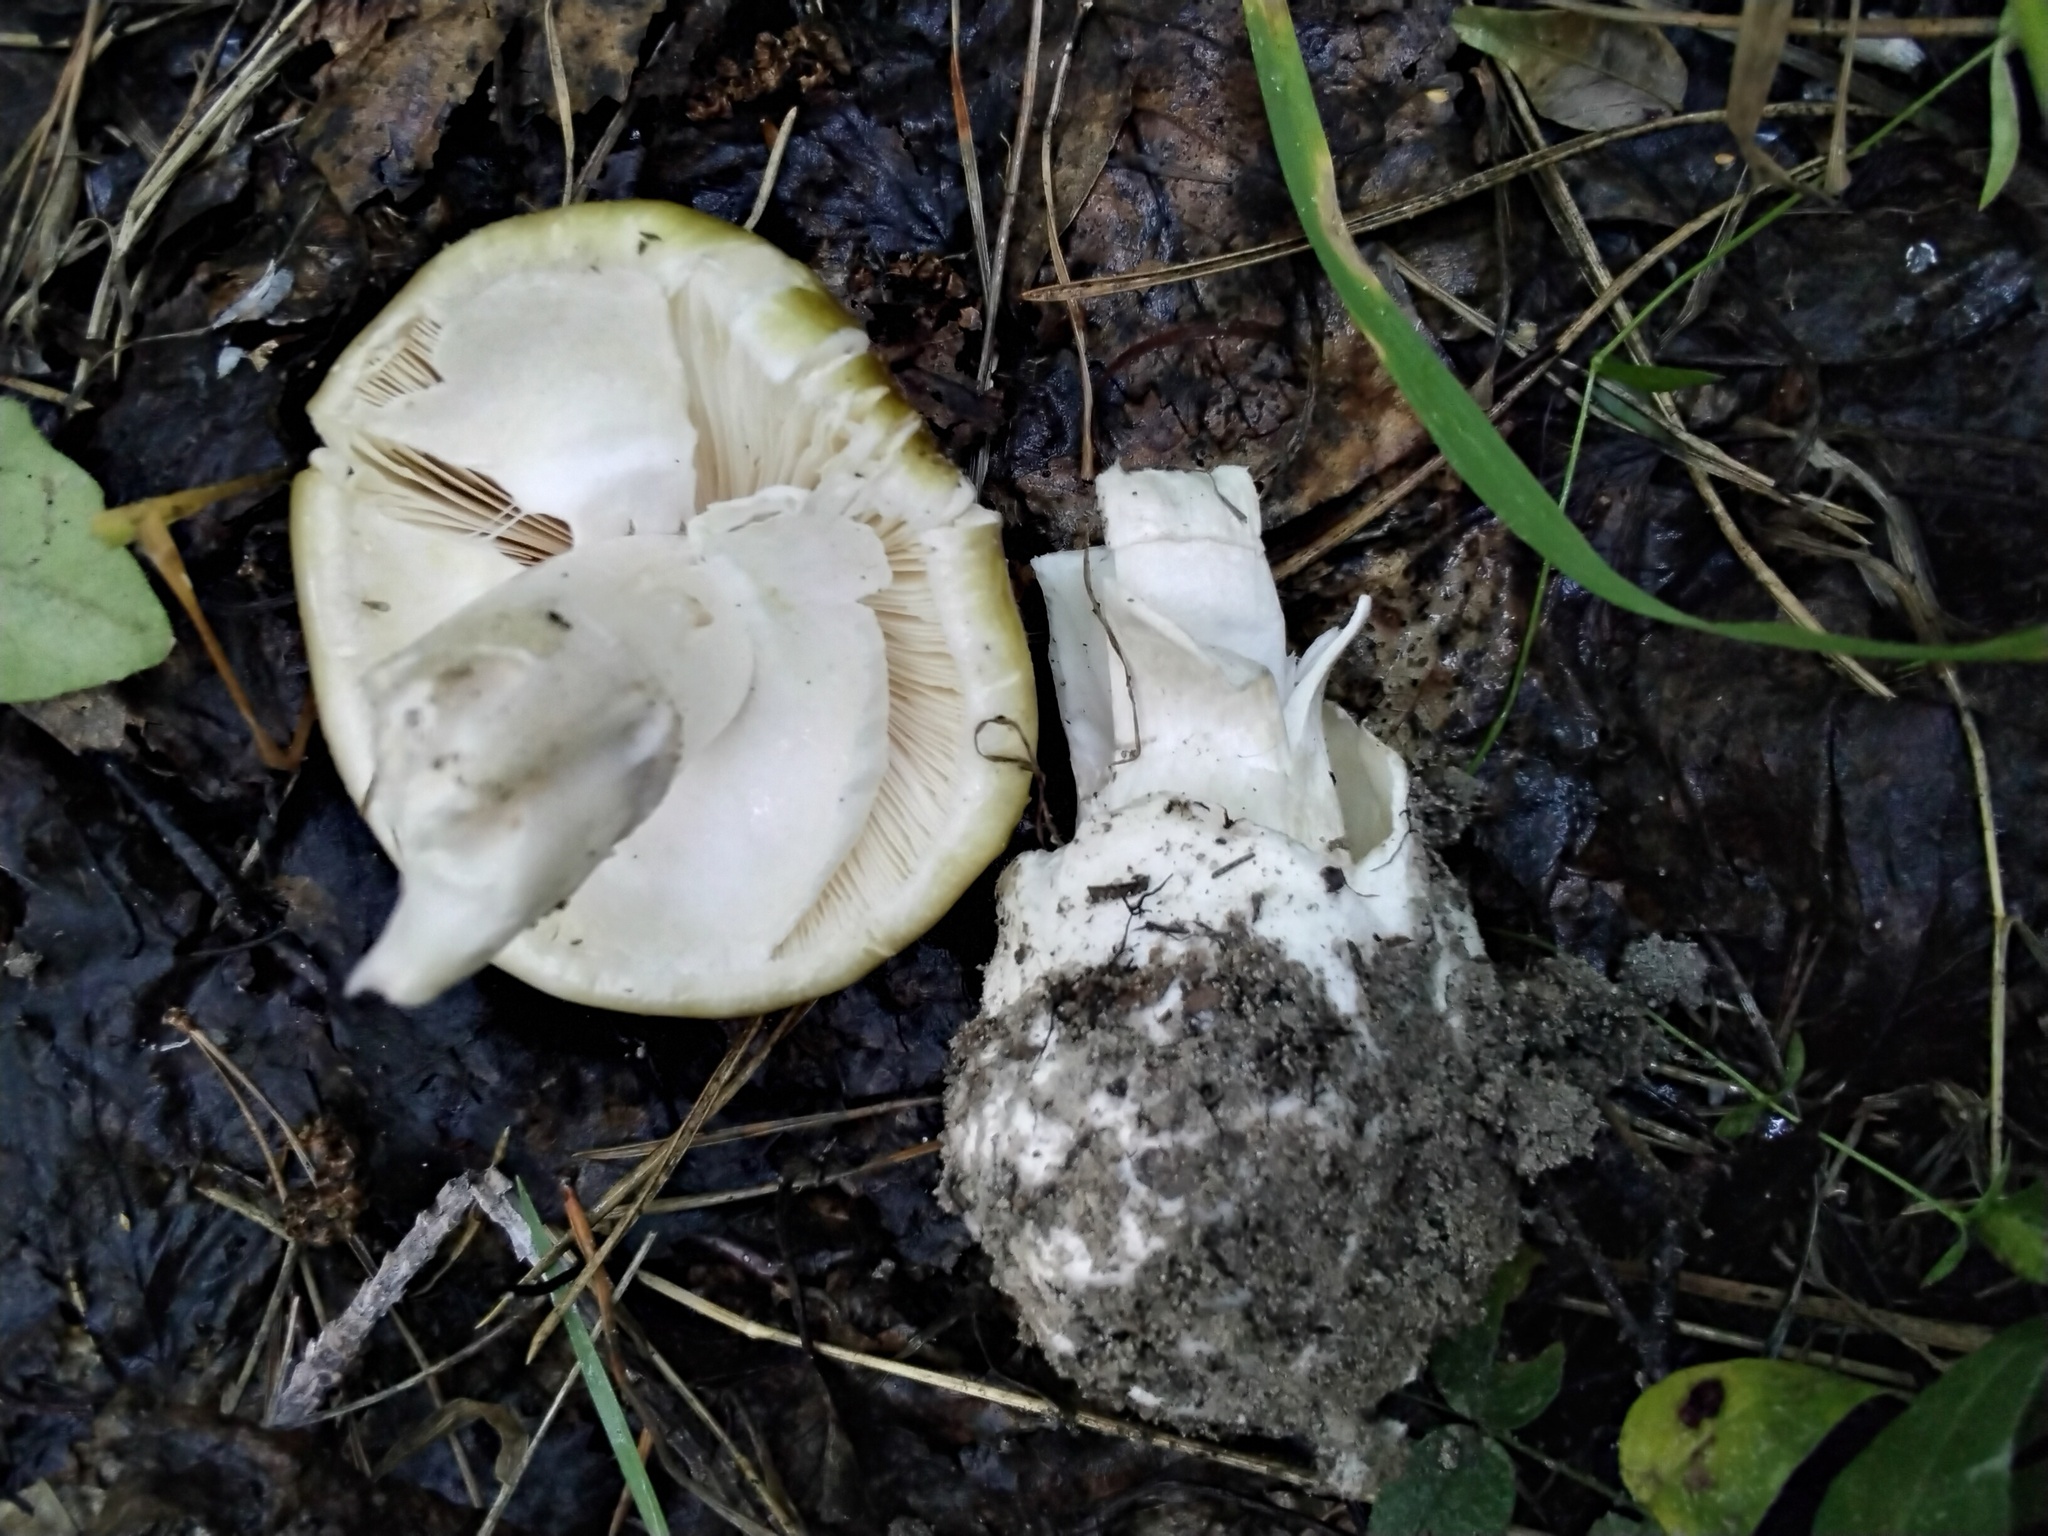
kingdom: Fungi
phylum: Basidiomycota
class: Agaricomycetes
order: Agaricales
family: Amanitaceae
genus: Amanita
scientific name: Amanita phalloides
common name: Death cap
